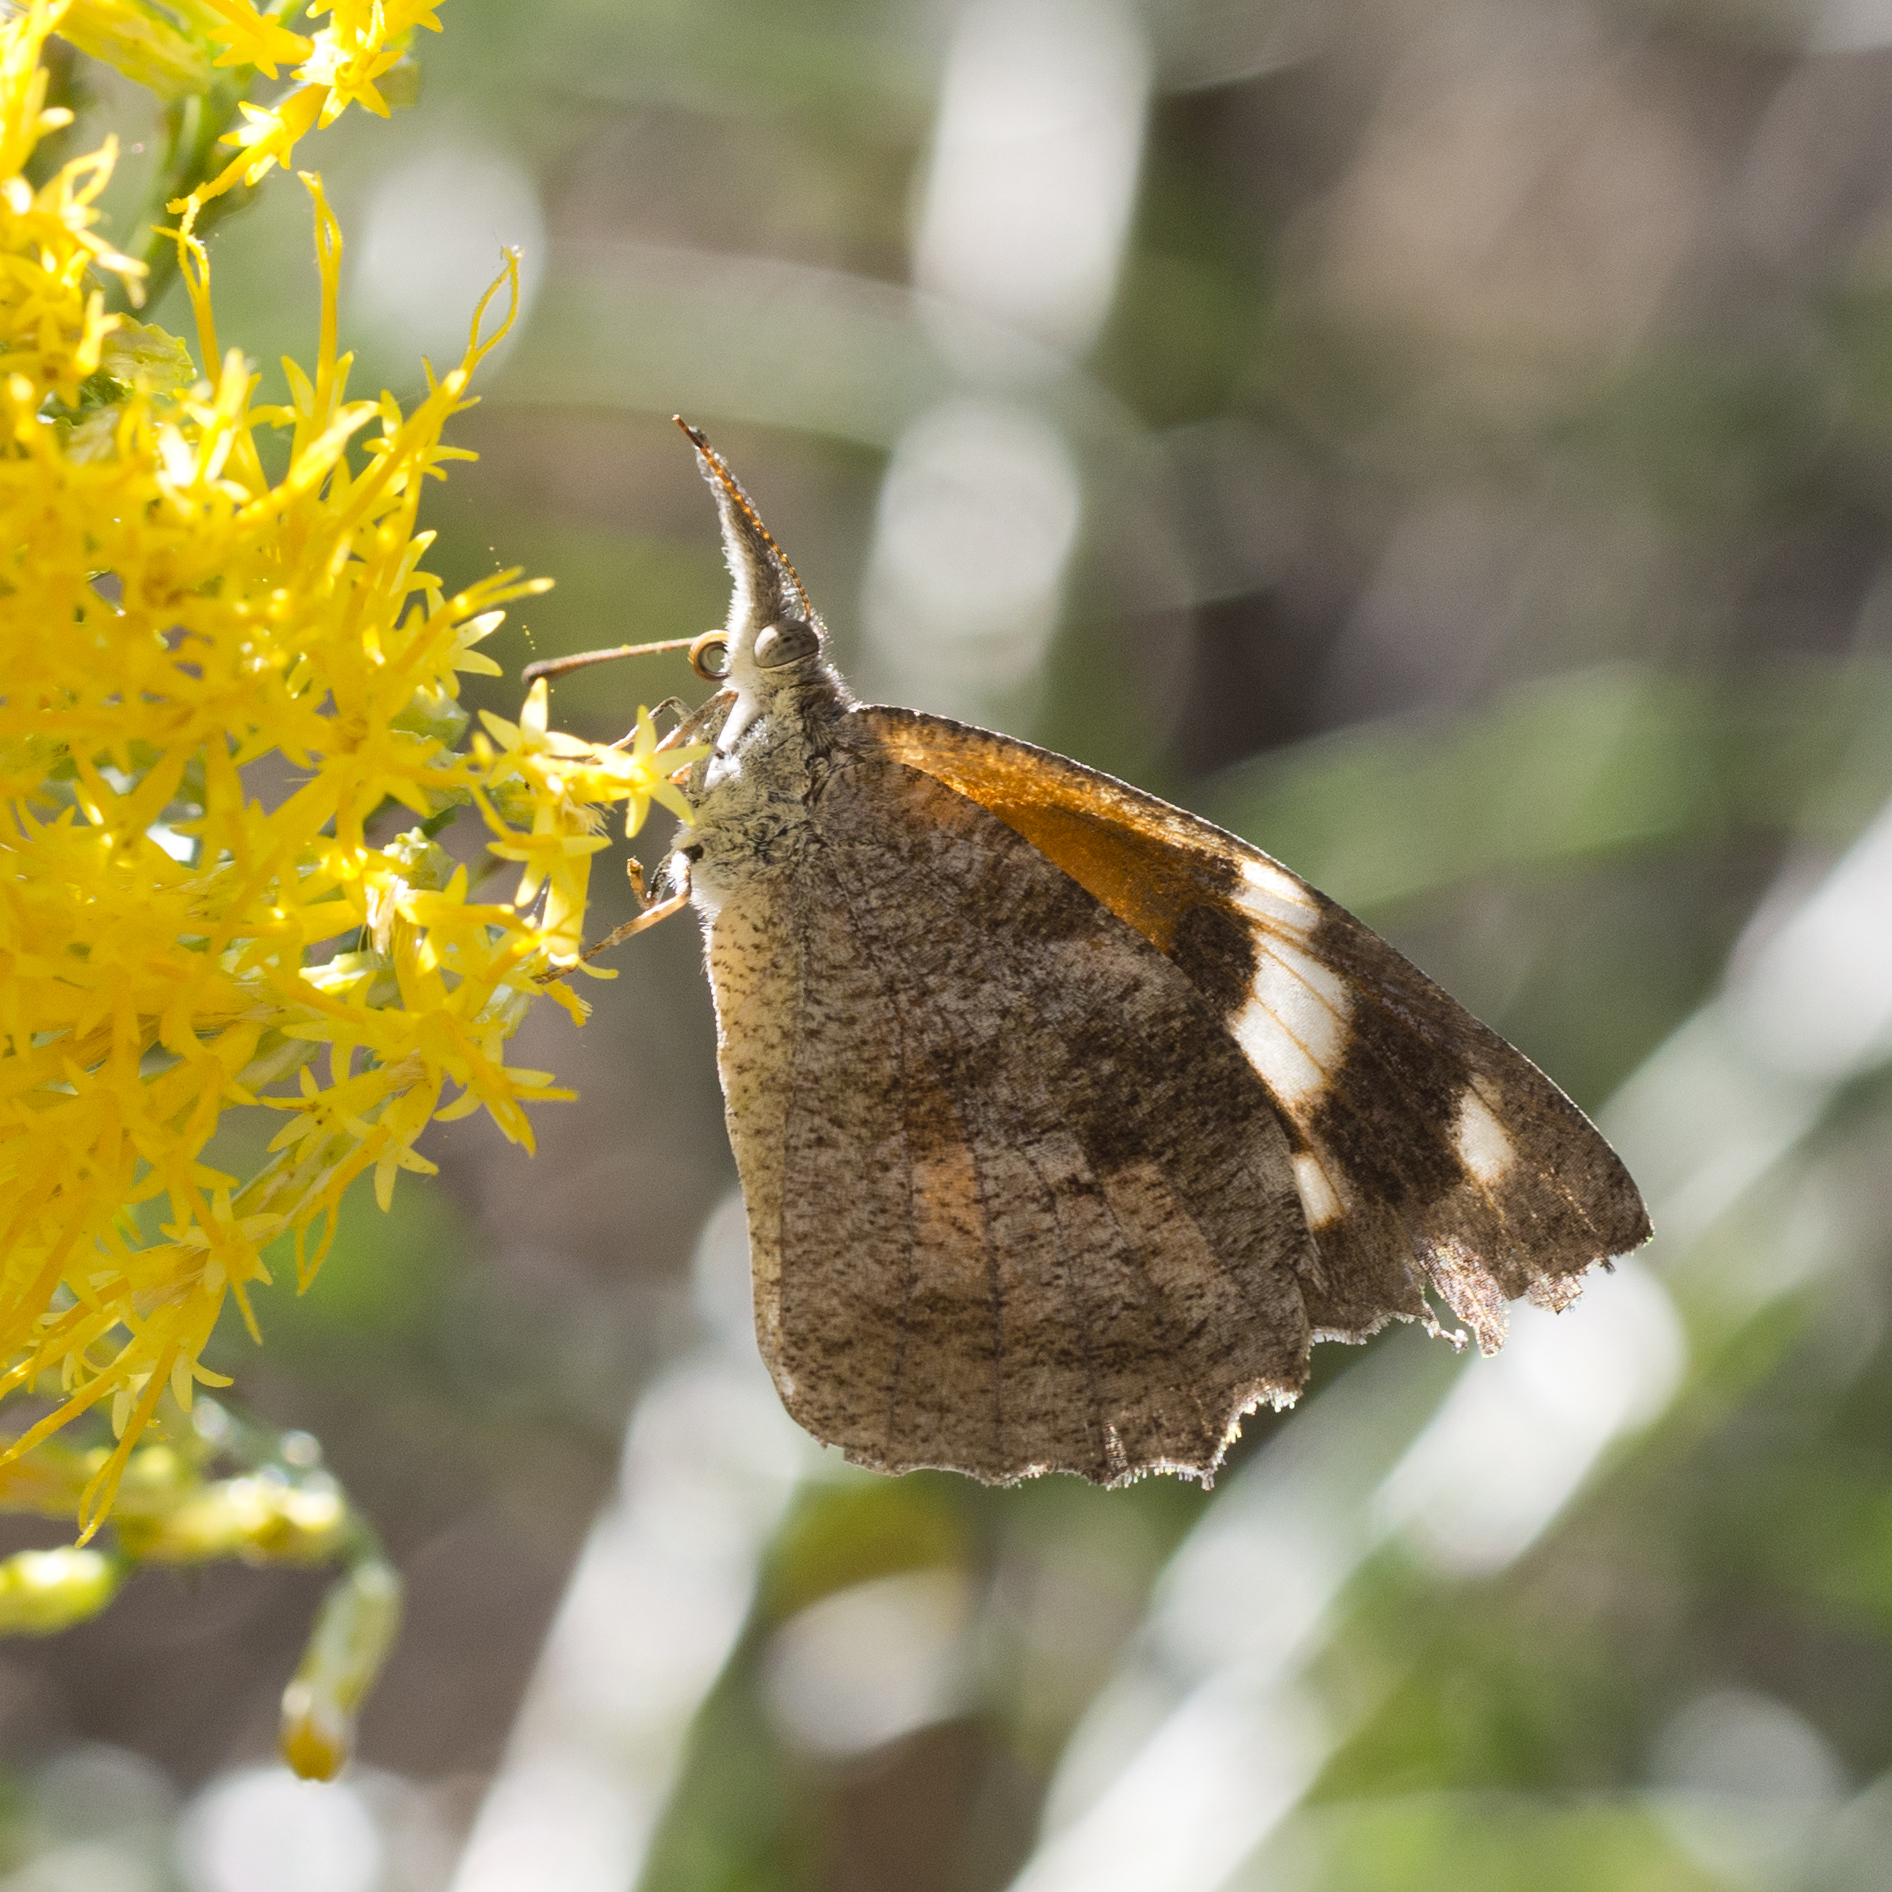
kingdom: Animalia
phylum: Arthropoda
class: Insecta
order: Lepidoptera
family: Nymphalidae
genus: Libytheana
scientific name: Libytheana carinenta
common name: American snout
